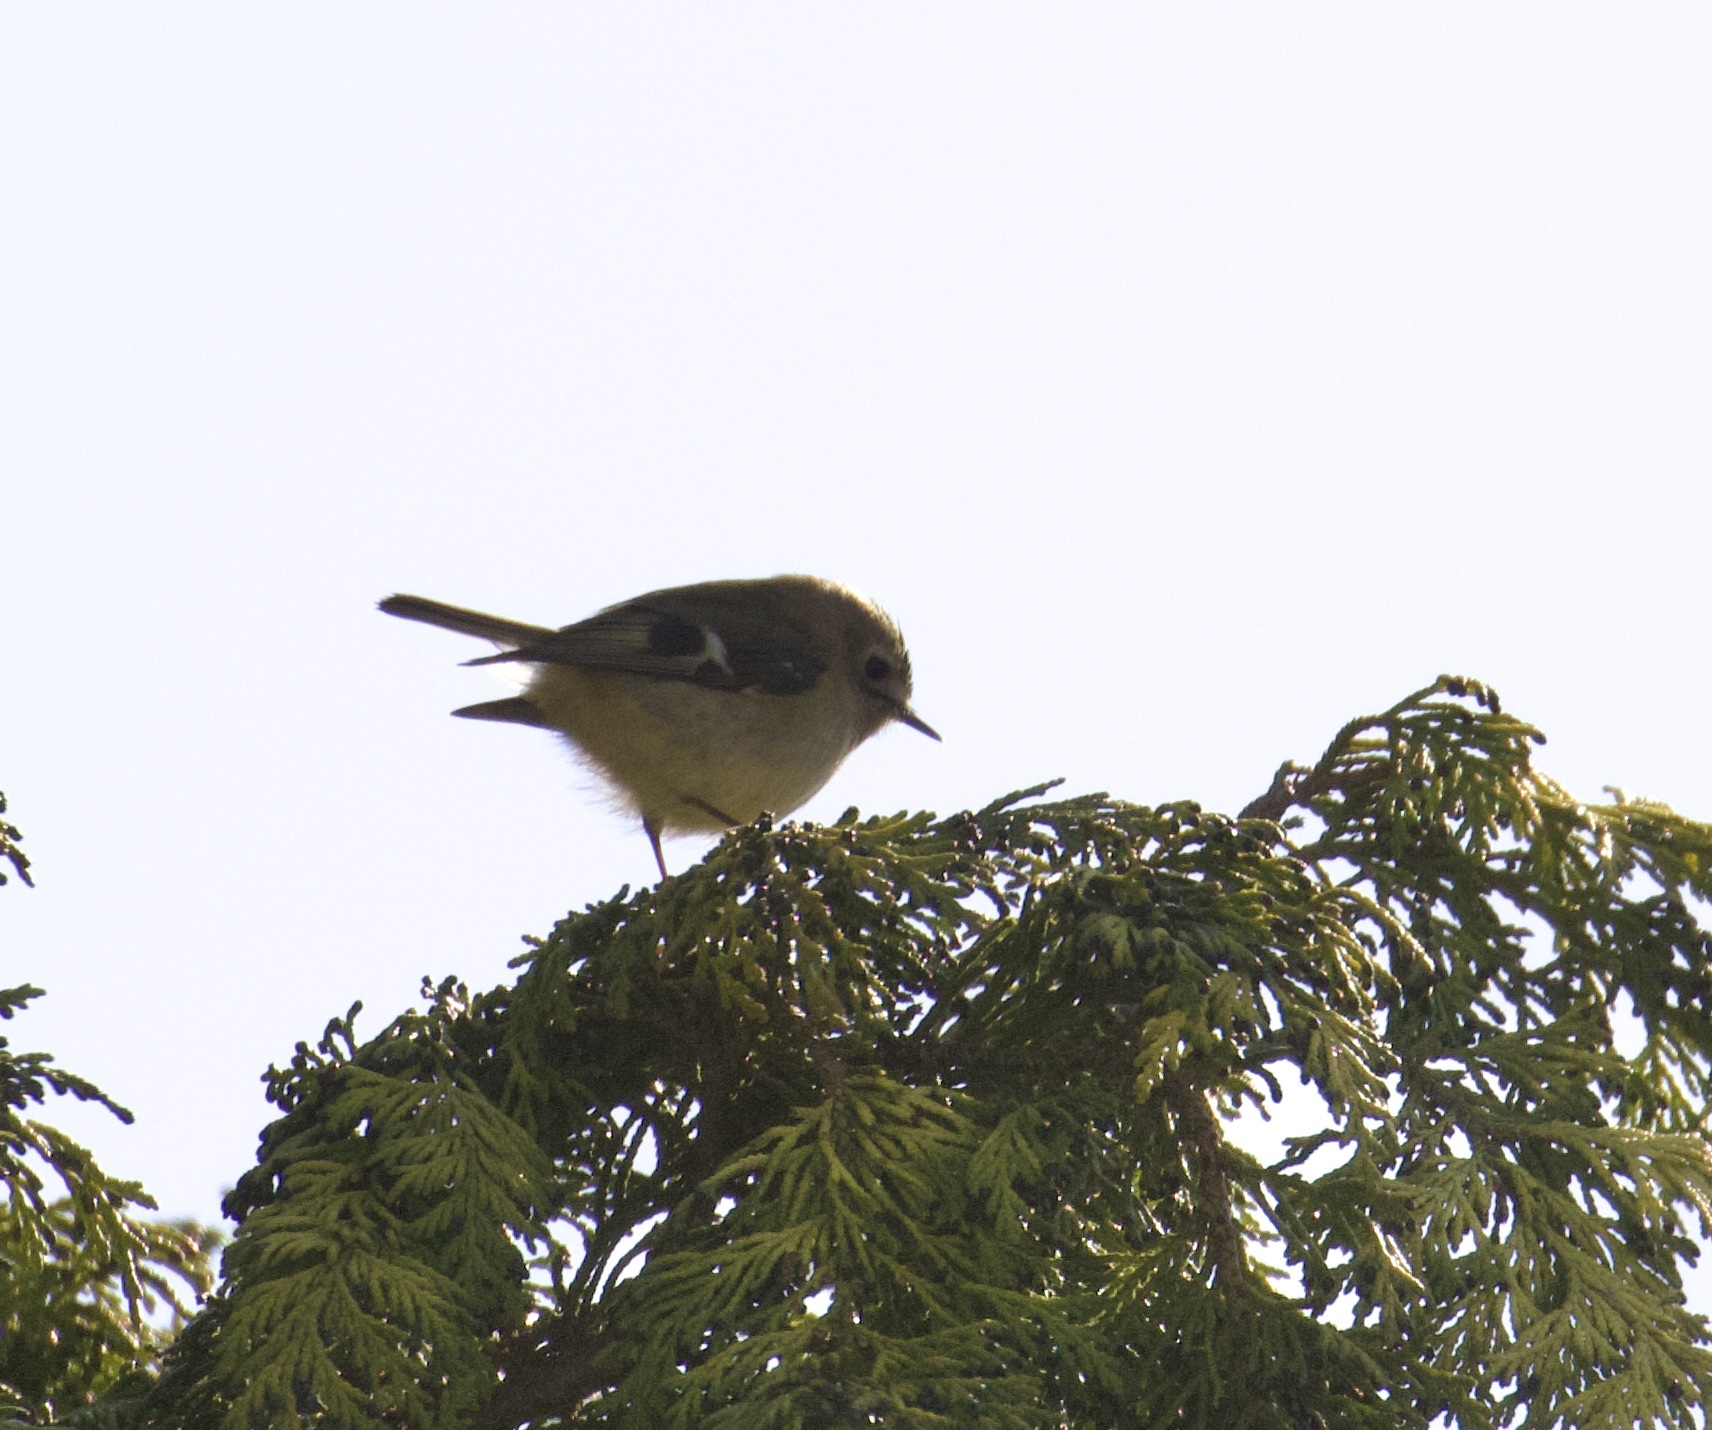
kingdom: Animalia
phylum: Chordata
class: Aves
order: Passeriformes
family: Regulidae
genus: Regulus
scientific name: Regulus regulus
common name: Goldcrest
